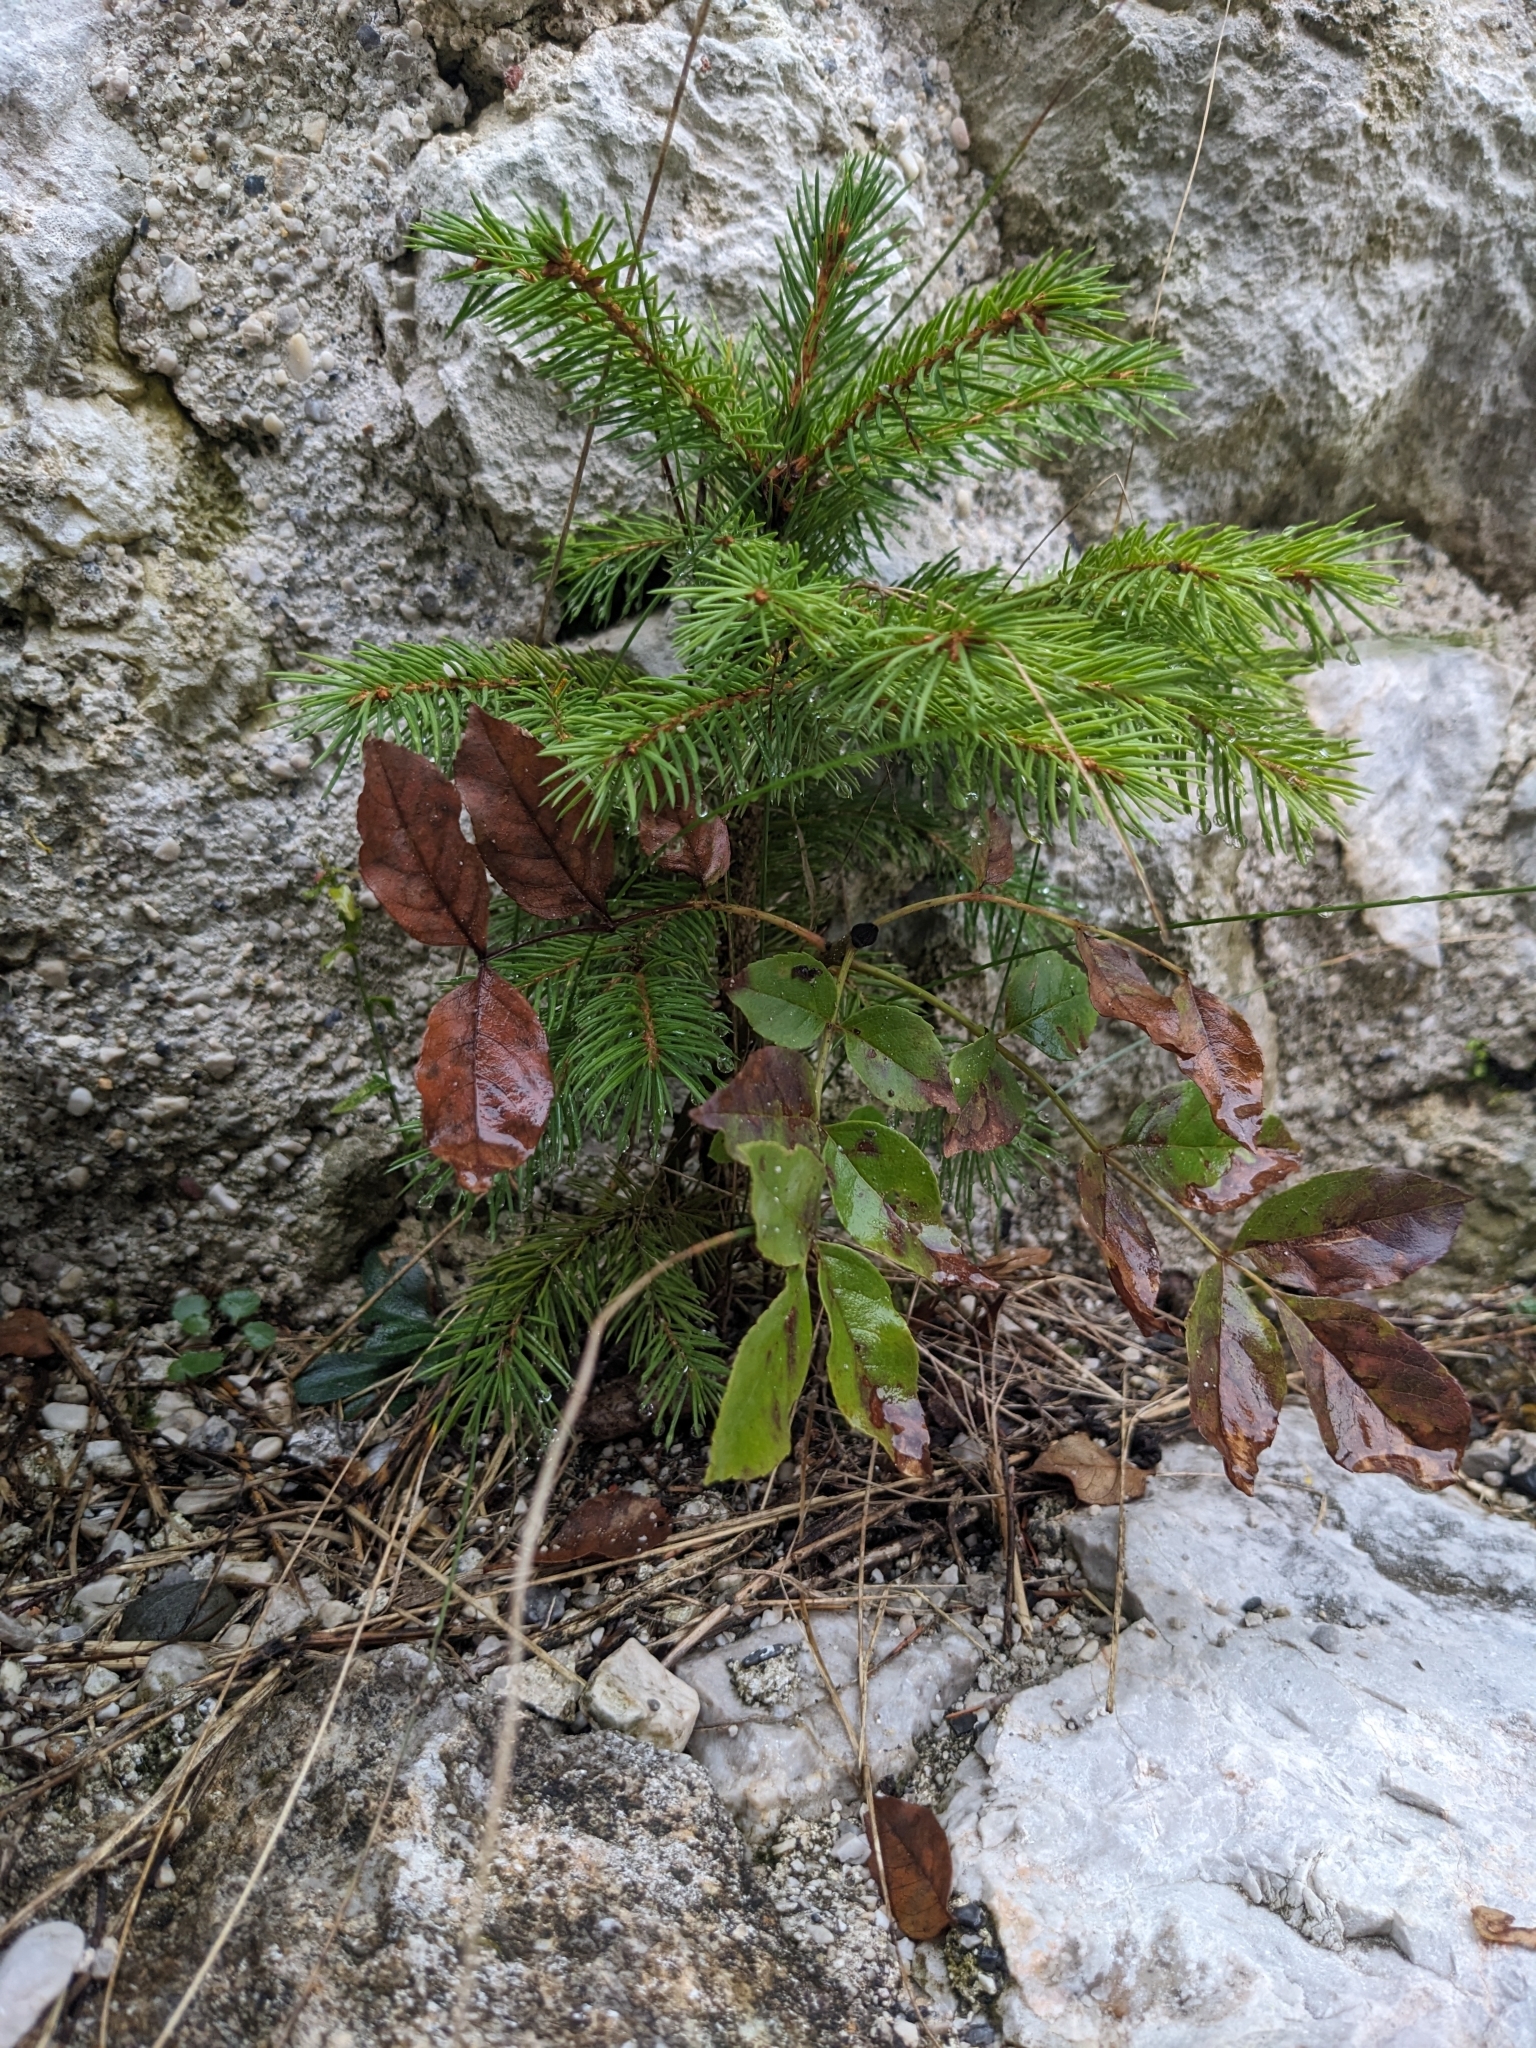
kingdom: Plantae
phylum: Tracheophyta
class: Pinopsida
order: Pinales
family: Pinaceae
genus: Picea
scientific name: Picea abies
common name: Norway spruce
